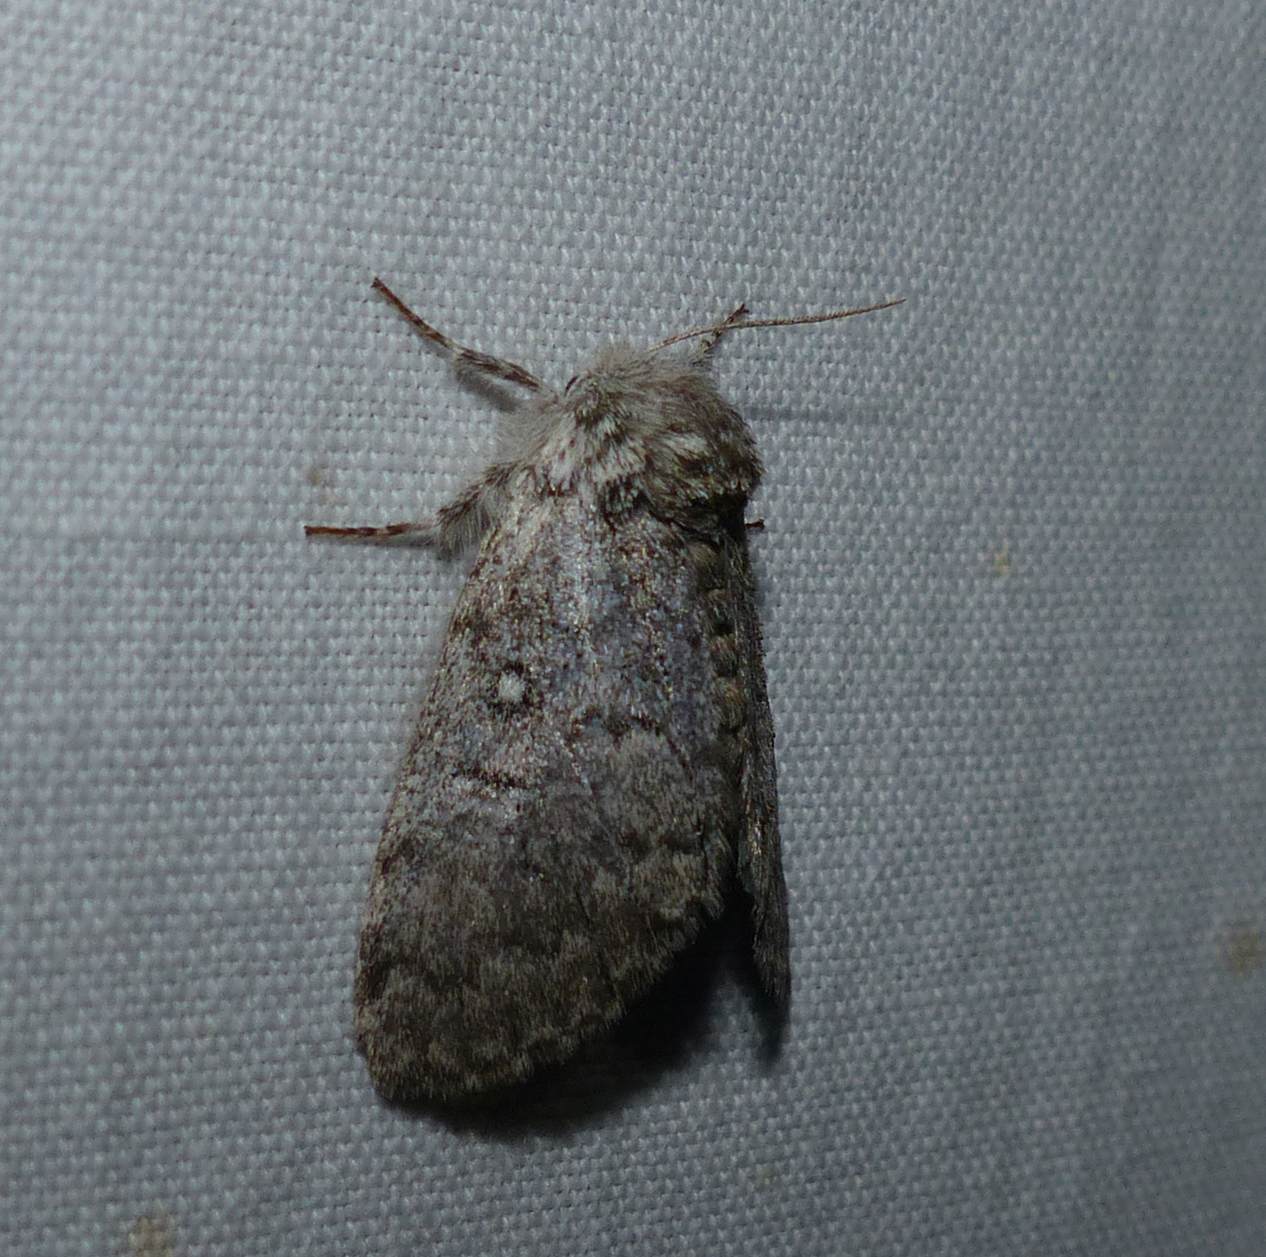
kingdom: Animalia
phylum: Arthropoda
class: Insecta
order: Lepidoptera
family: Noctuidae
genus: Colocasia
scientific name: Colocasia propinquilinea
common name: Close-banded demas
